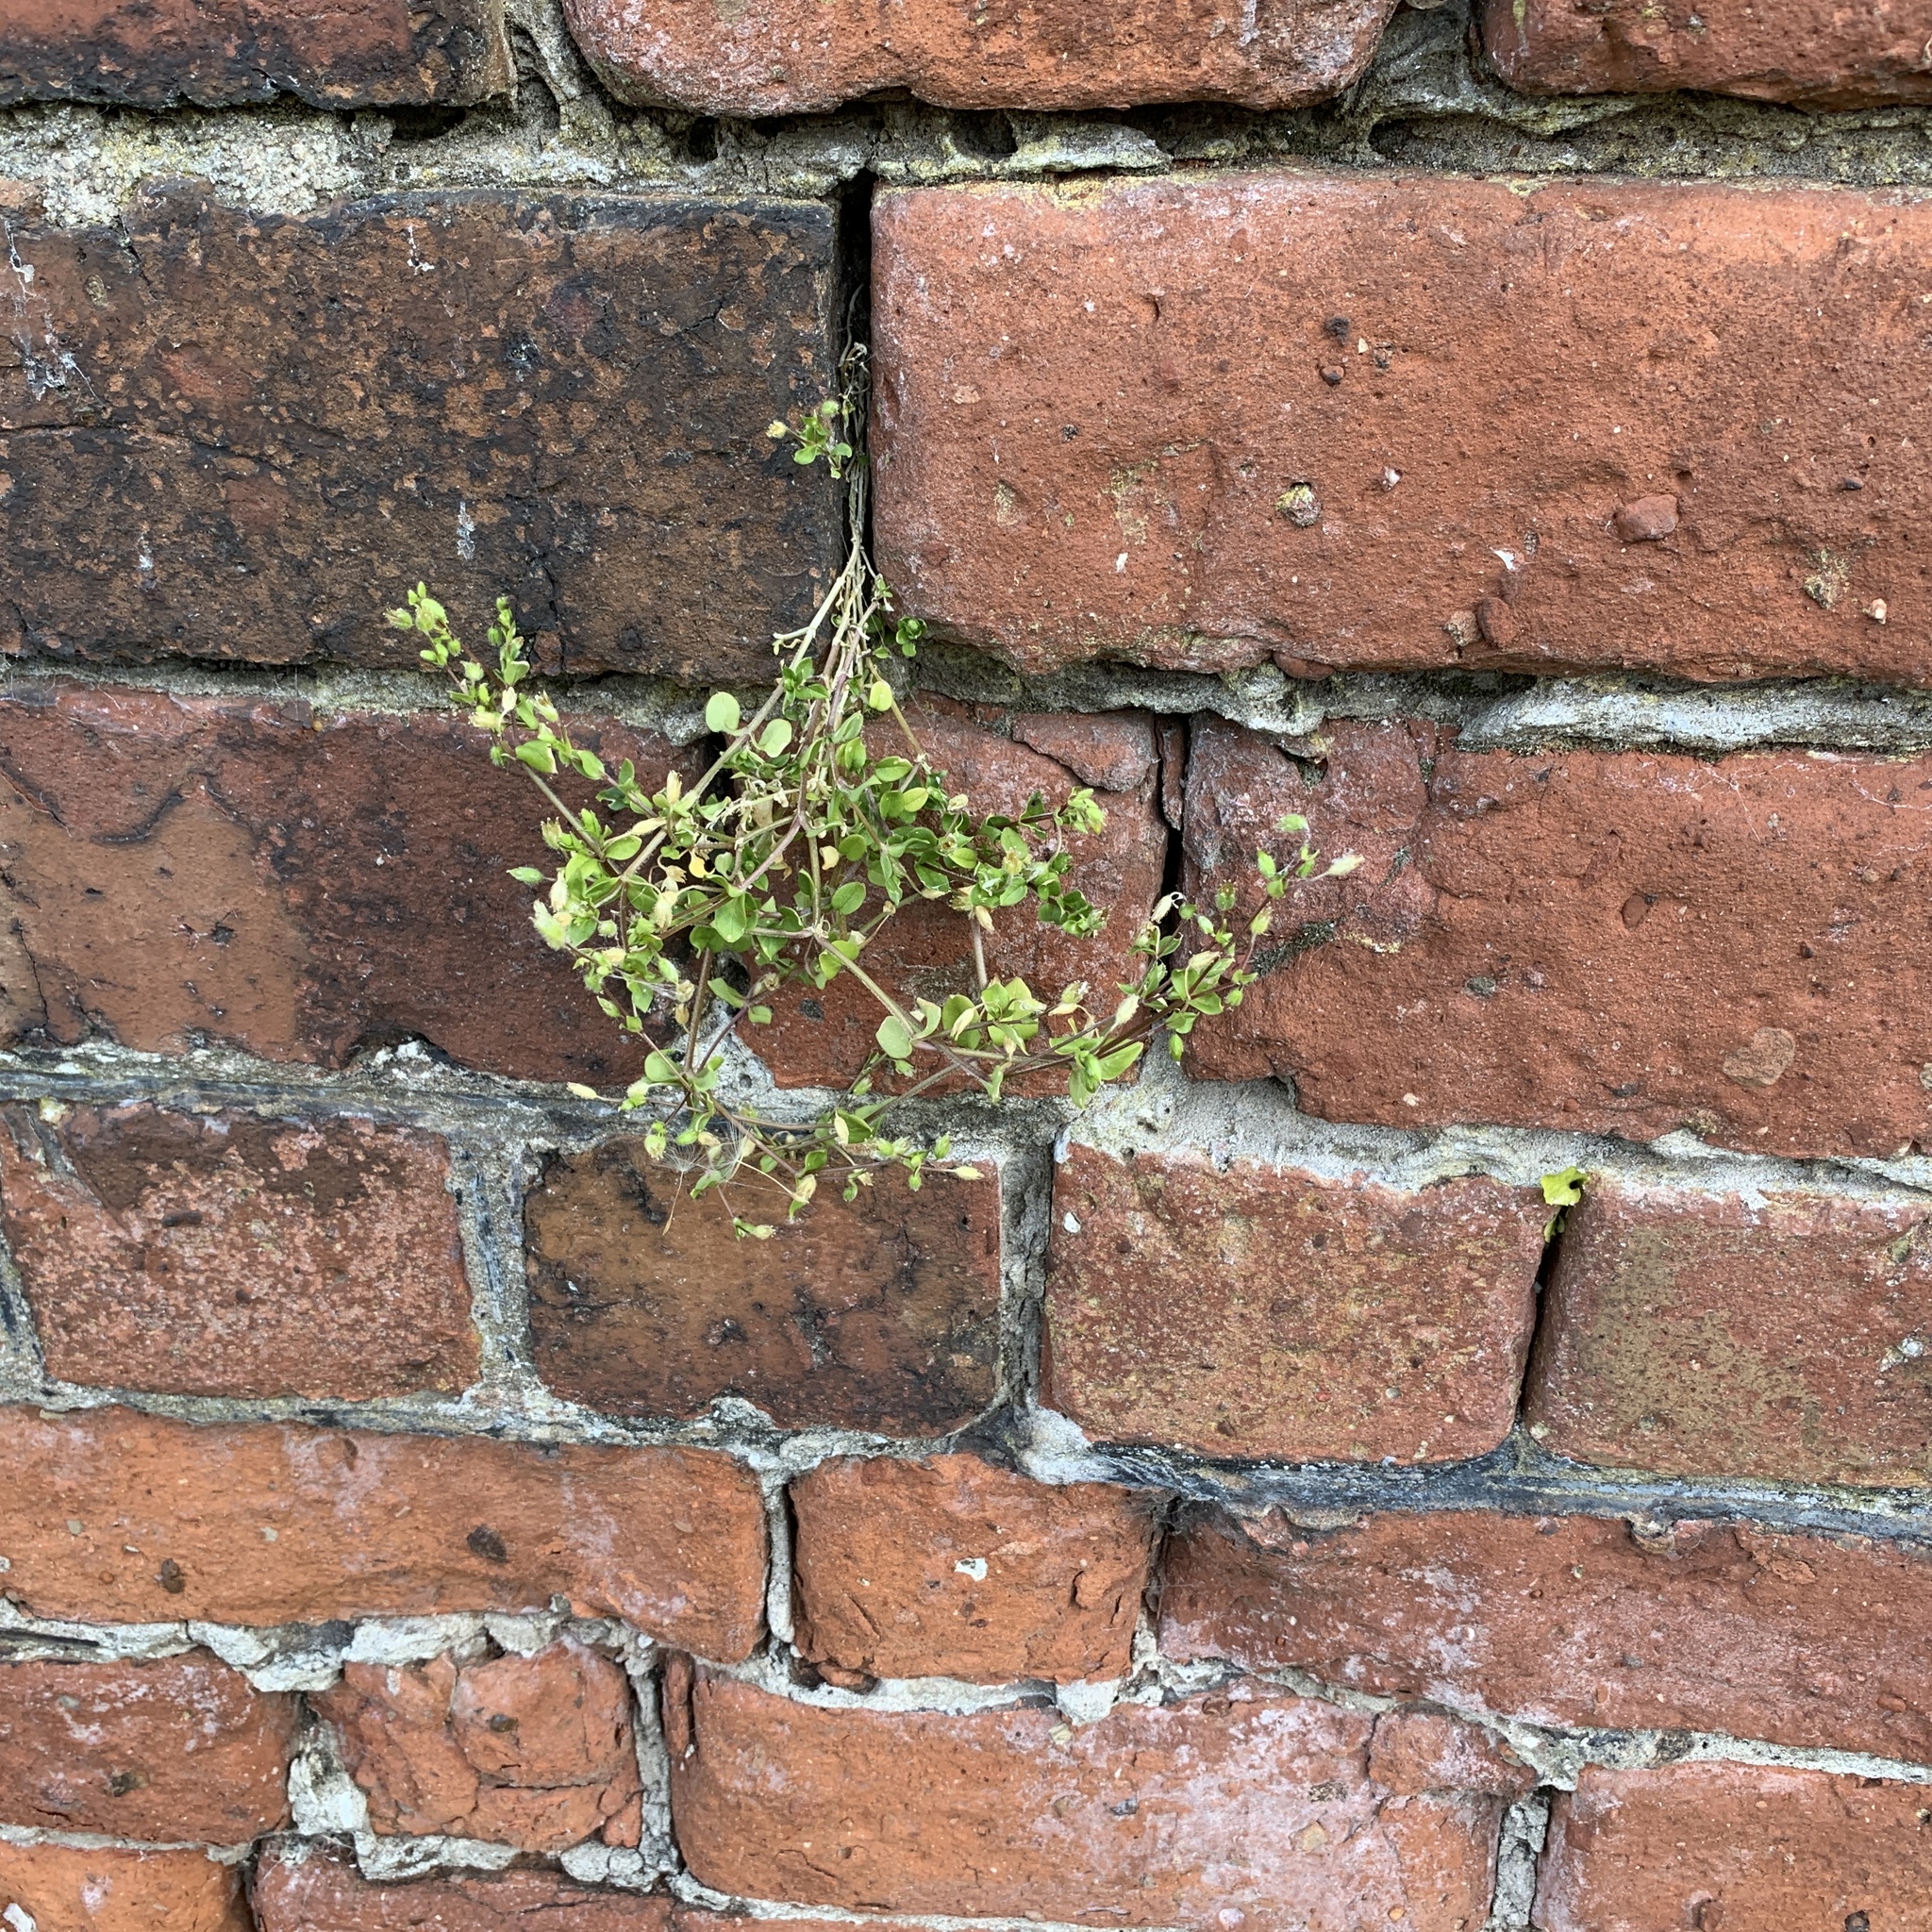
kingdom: Plantae
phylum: Tracheophyta
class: Magnoliopsida
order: Caryophyllales
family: Caryophyllaceae
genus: Stellaria
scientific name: Stellaria media
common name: Common chickweed
